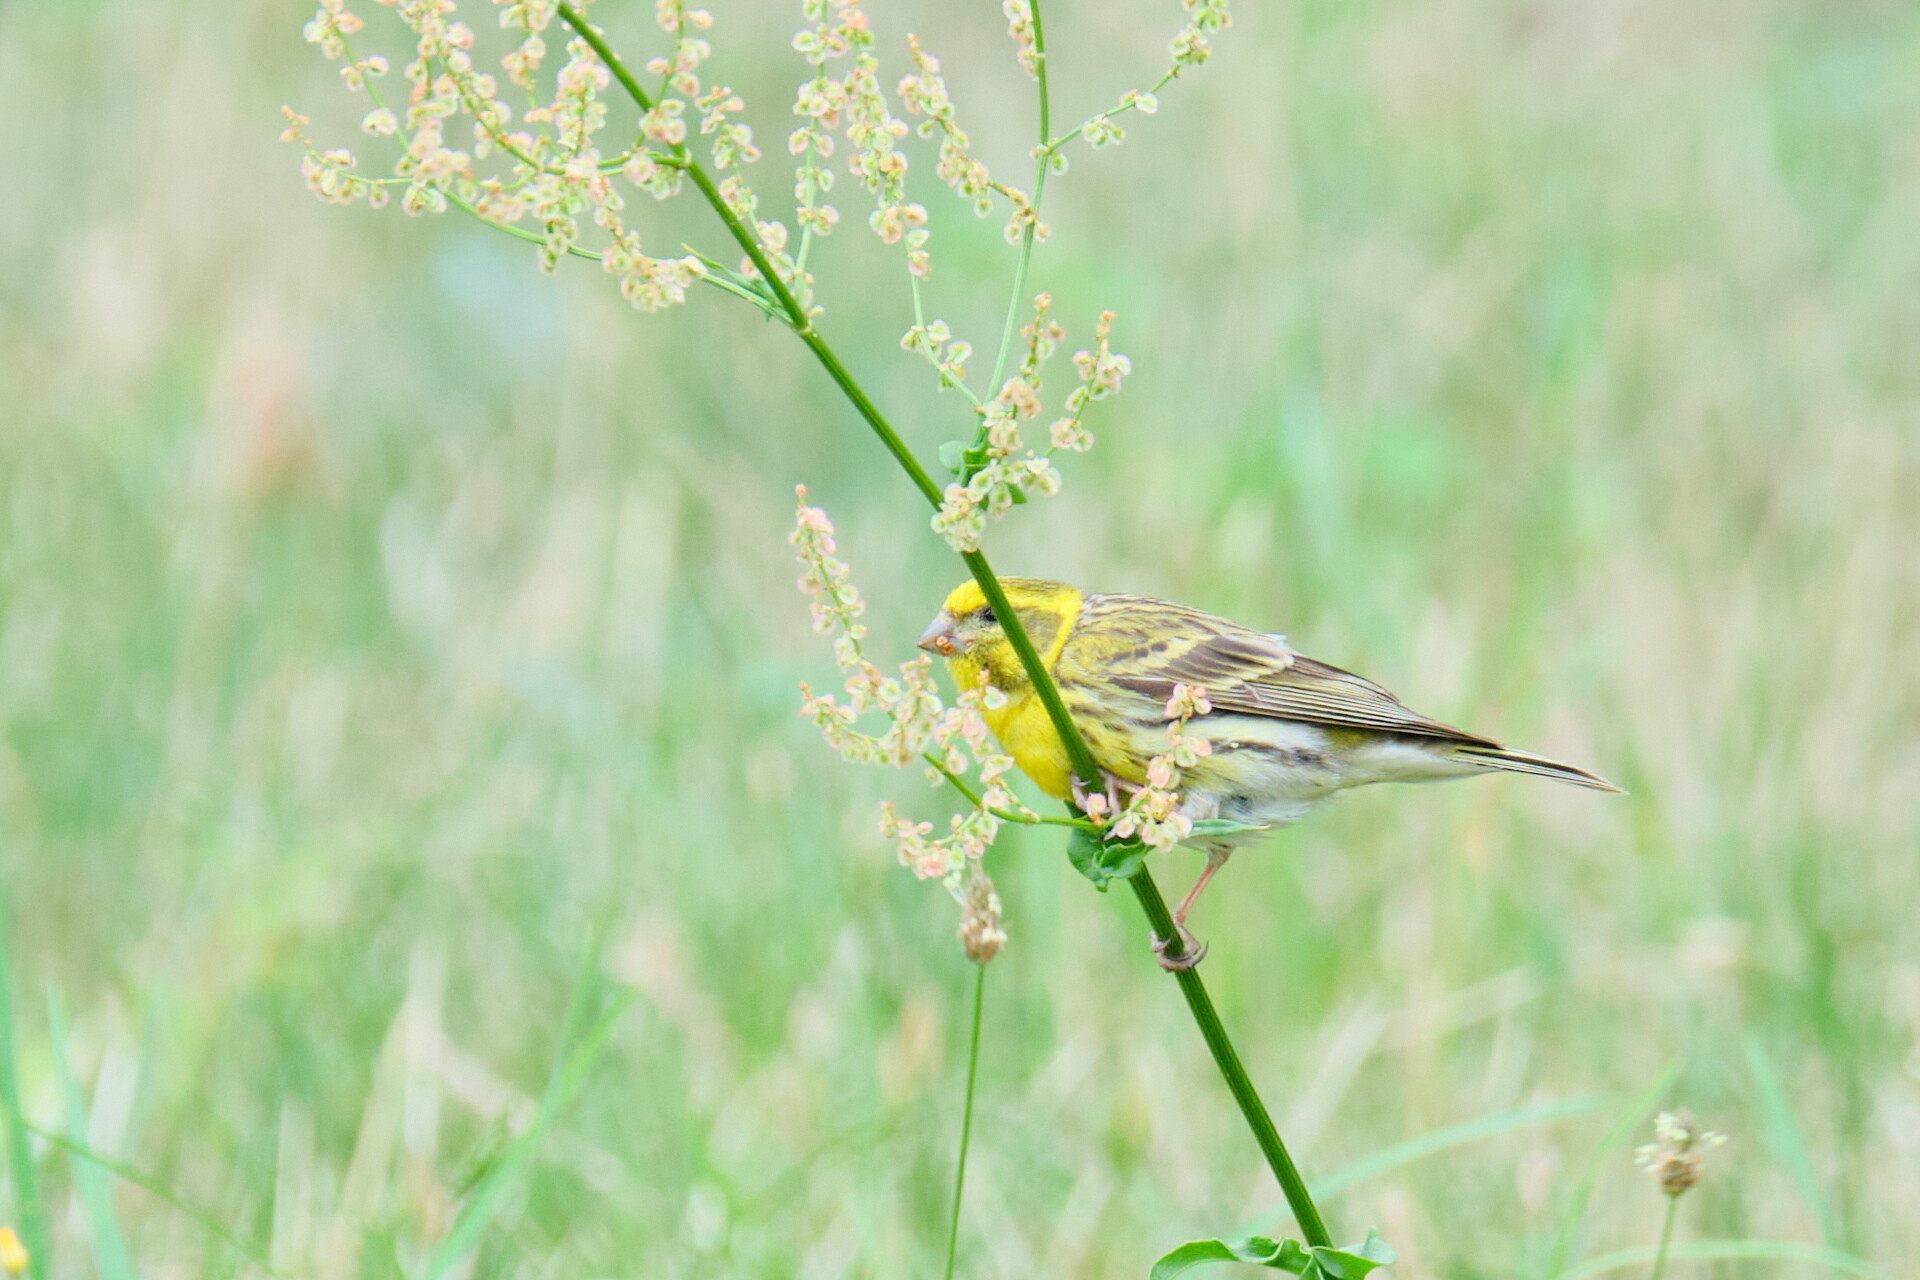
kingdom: Animalia
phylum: Chordata
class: Aves
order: Passeriformes
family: Fringillidae
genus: Serinus
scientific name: Serinus serinus
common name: European serin
